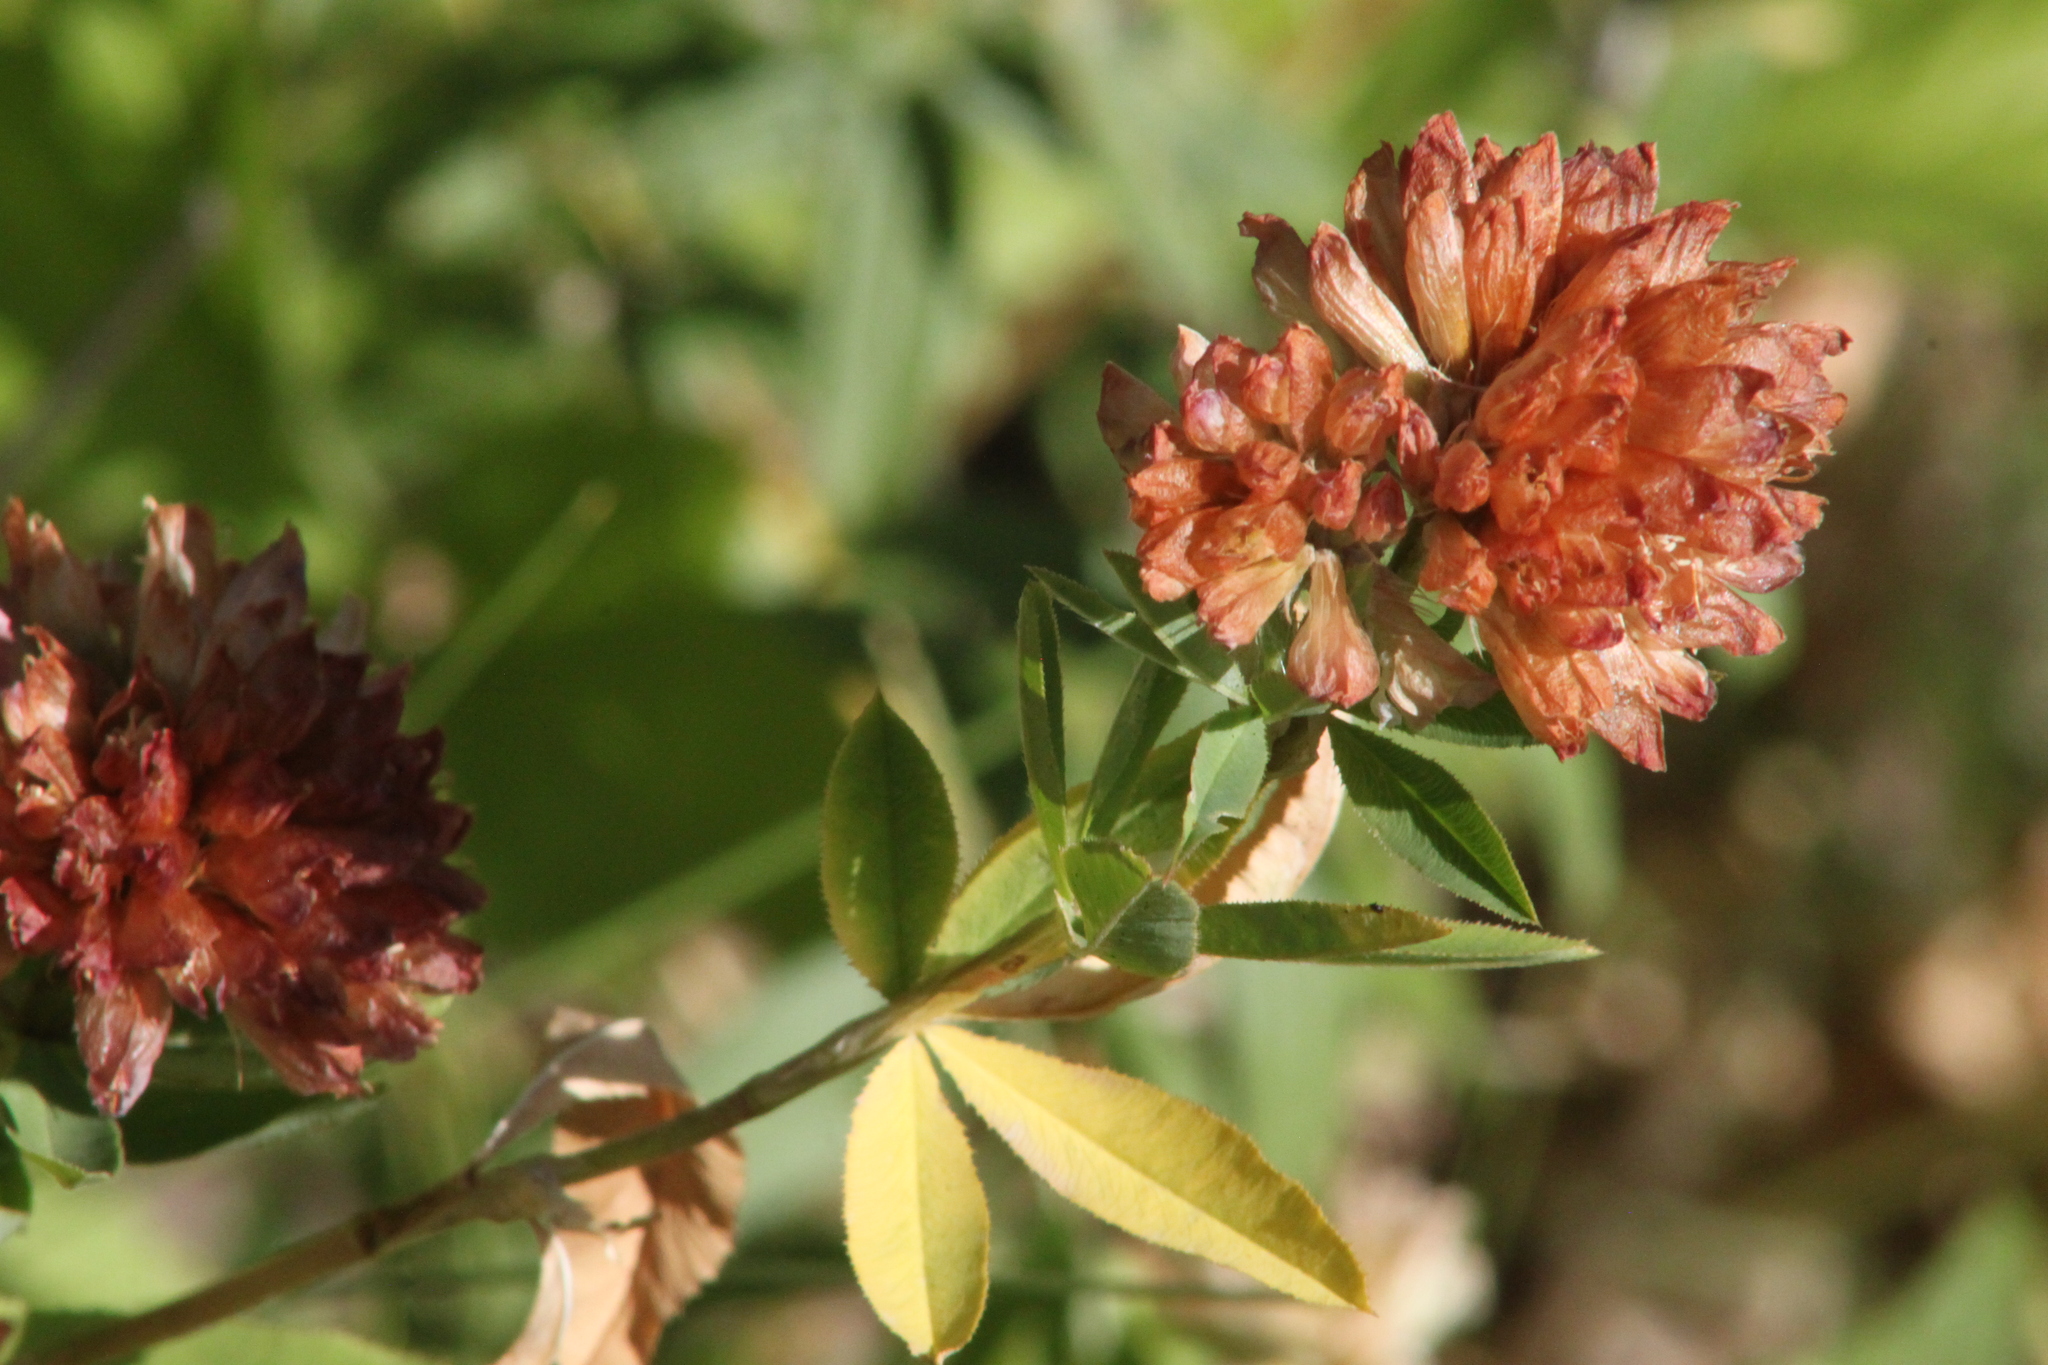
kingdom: Plantae
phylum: Tracheophyta
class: Magnoliopsida
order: Fabales
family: Fabaceae
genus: Trifolium
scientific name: Trifolium lupinaster
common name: Lupine clover
